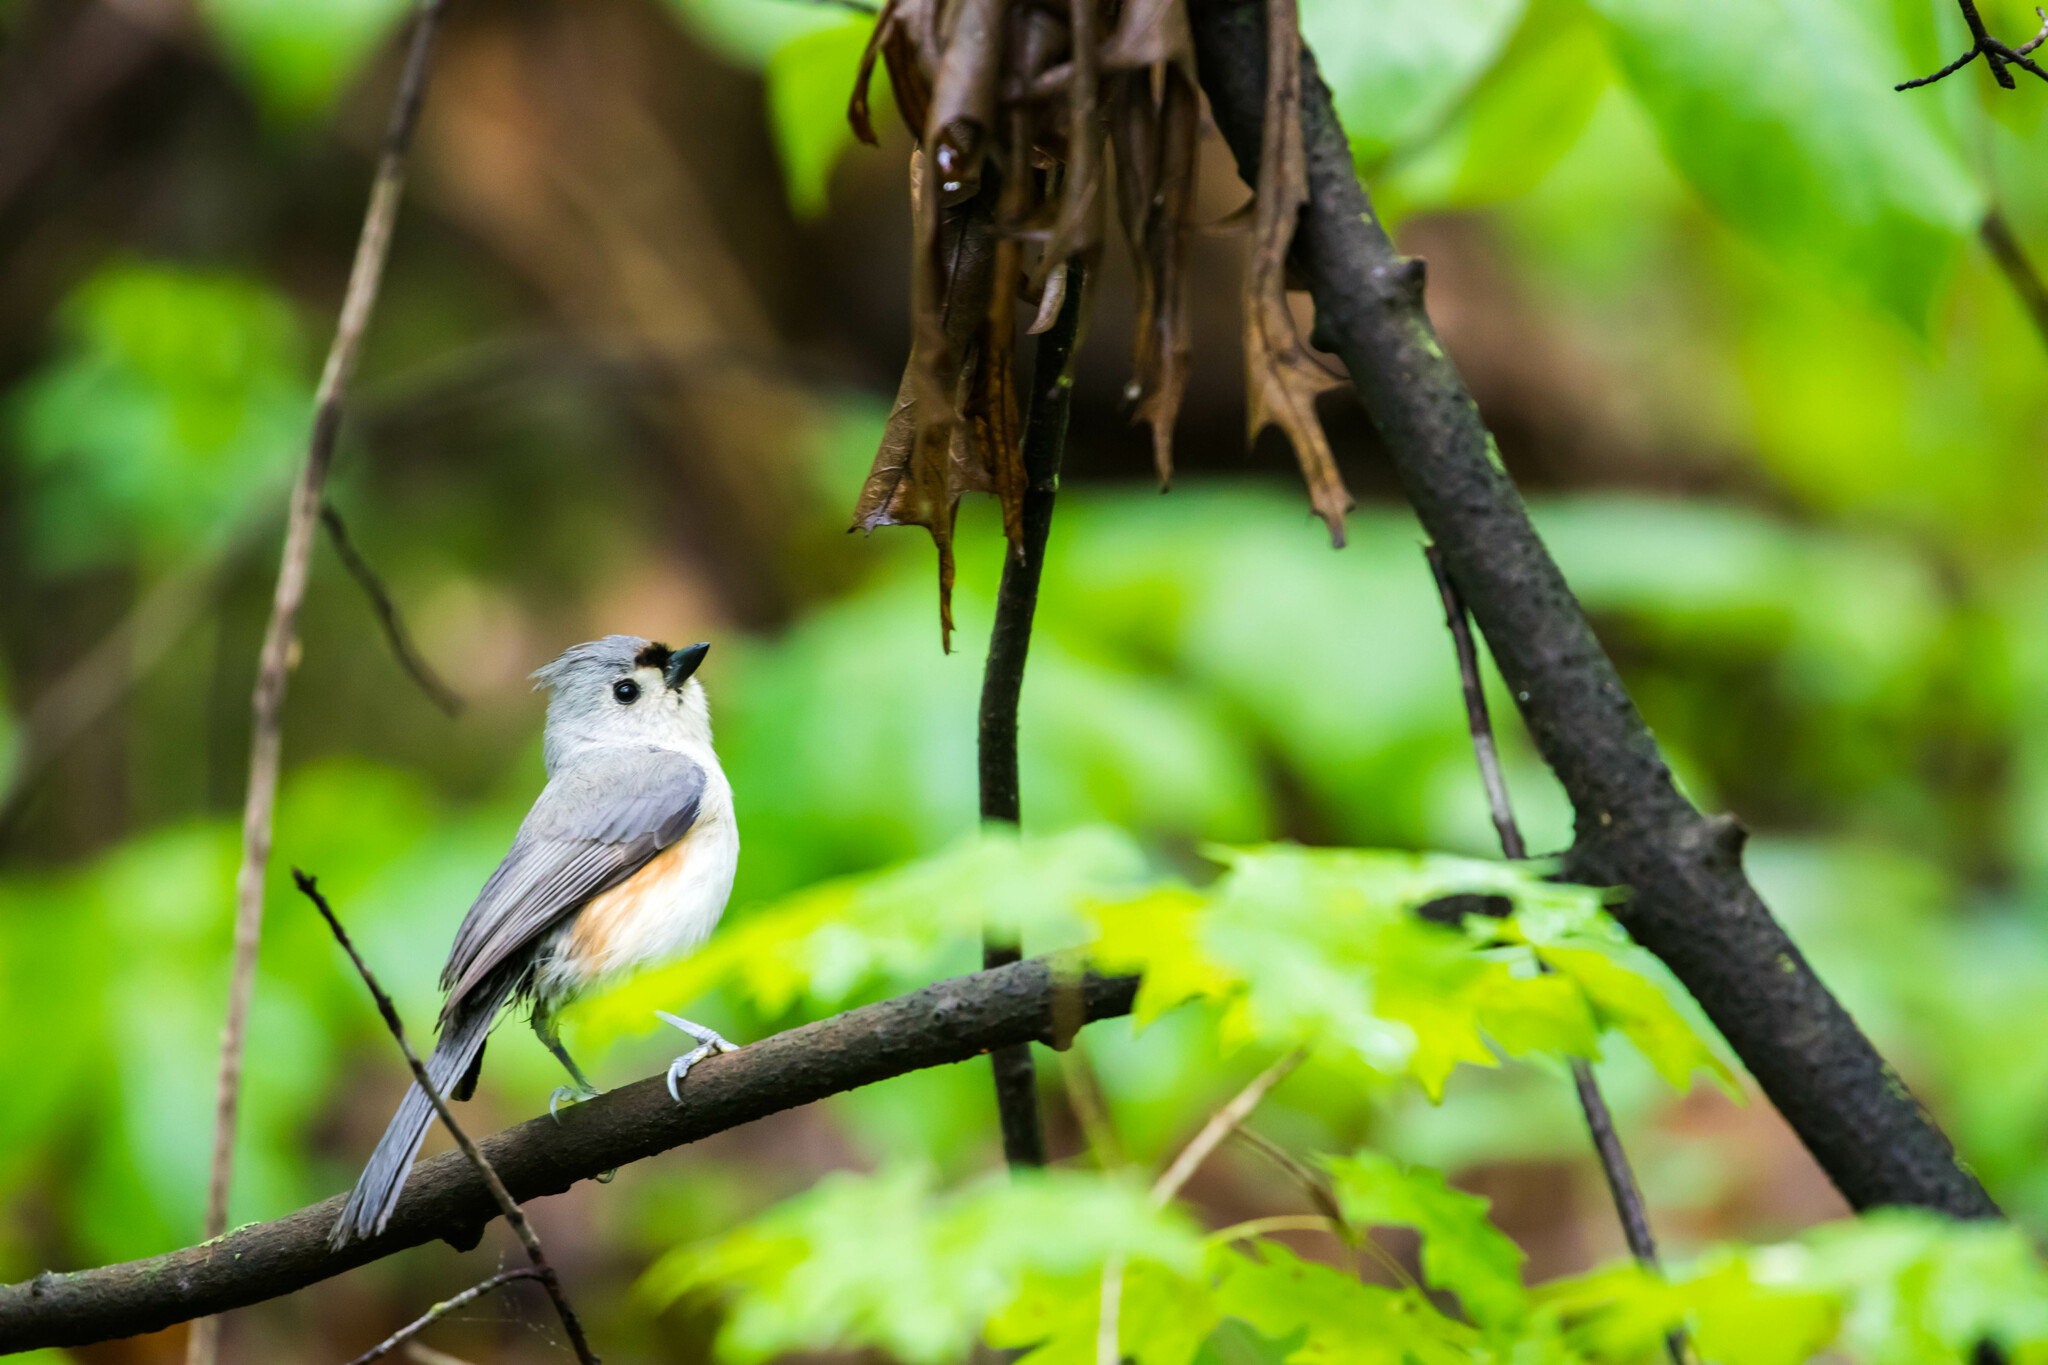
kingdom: Animalia
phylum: Chordata
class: Aves
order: Passeriformes
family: Paridae
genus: Baeolophus
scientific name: Baeolophus bicolor
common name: Tufted titmouse
